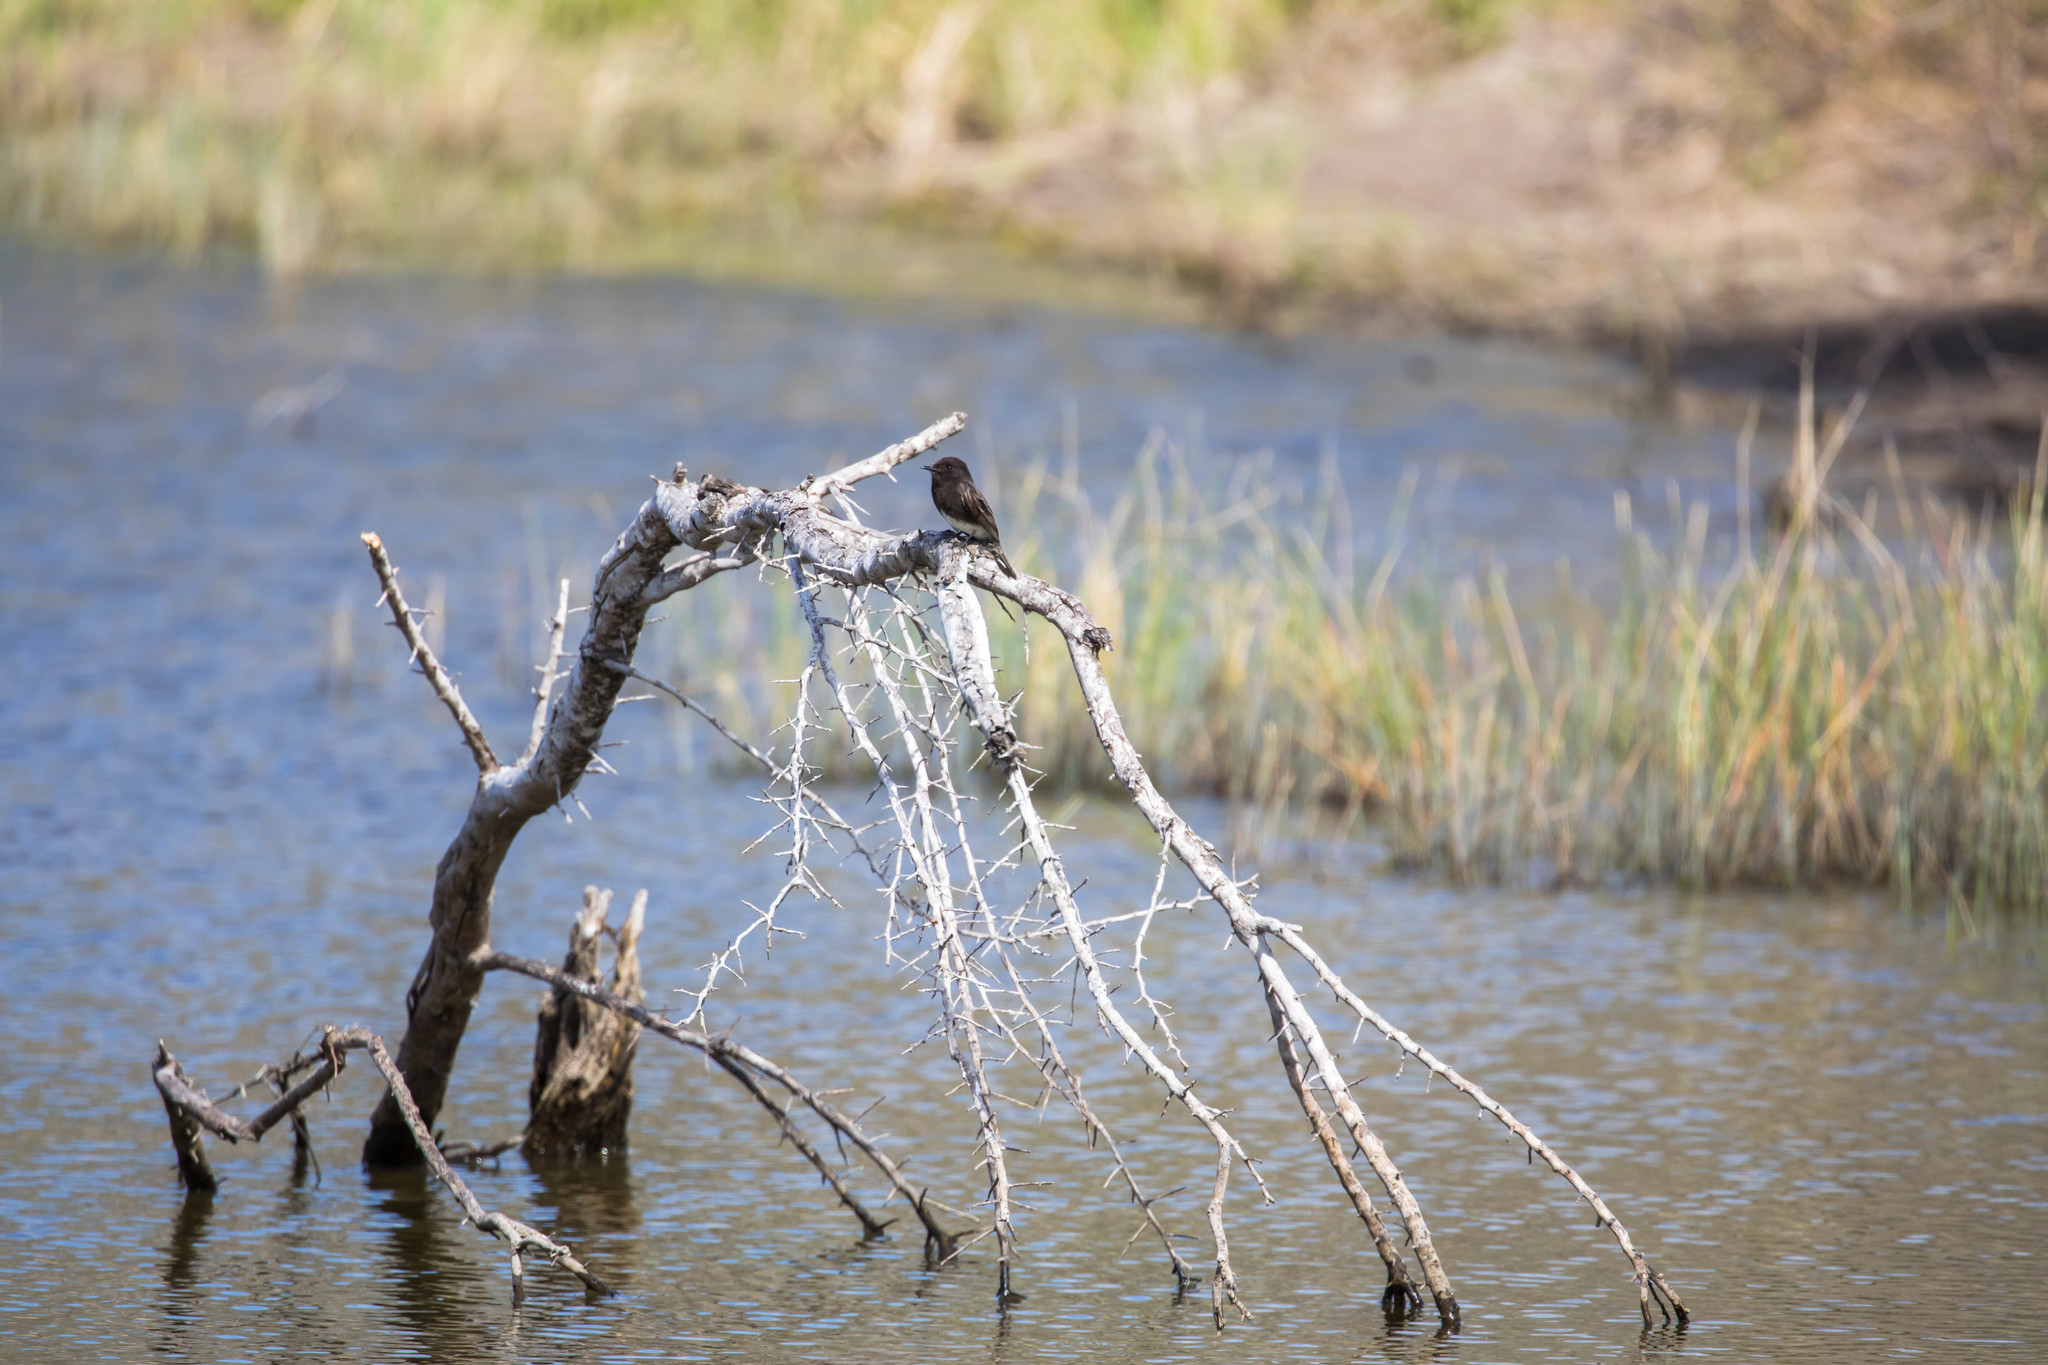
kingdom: Animalia
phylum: Chordata
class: Aves
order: Passeriformes
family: Tyrannidae
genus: Sayornis
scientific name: Sayornis nigricans
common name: Black phoebe
